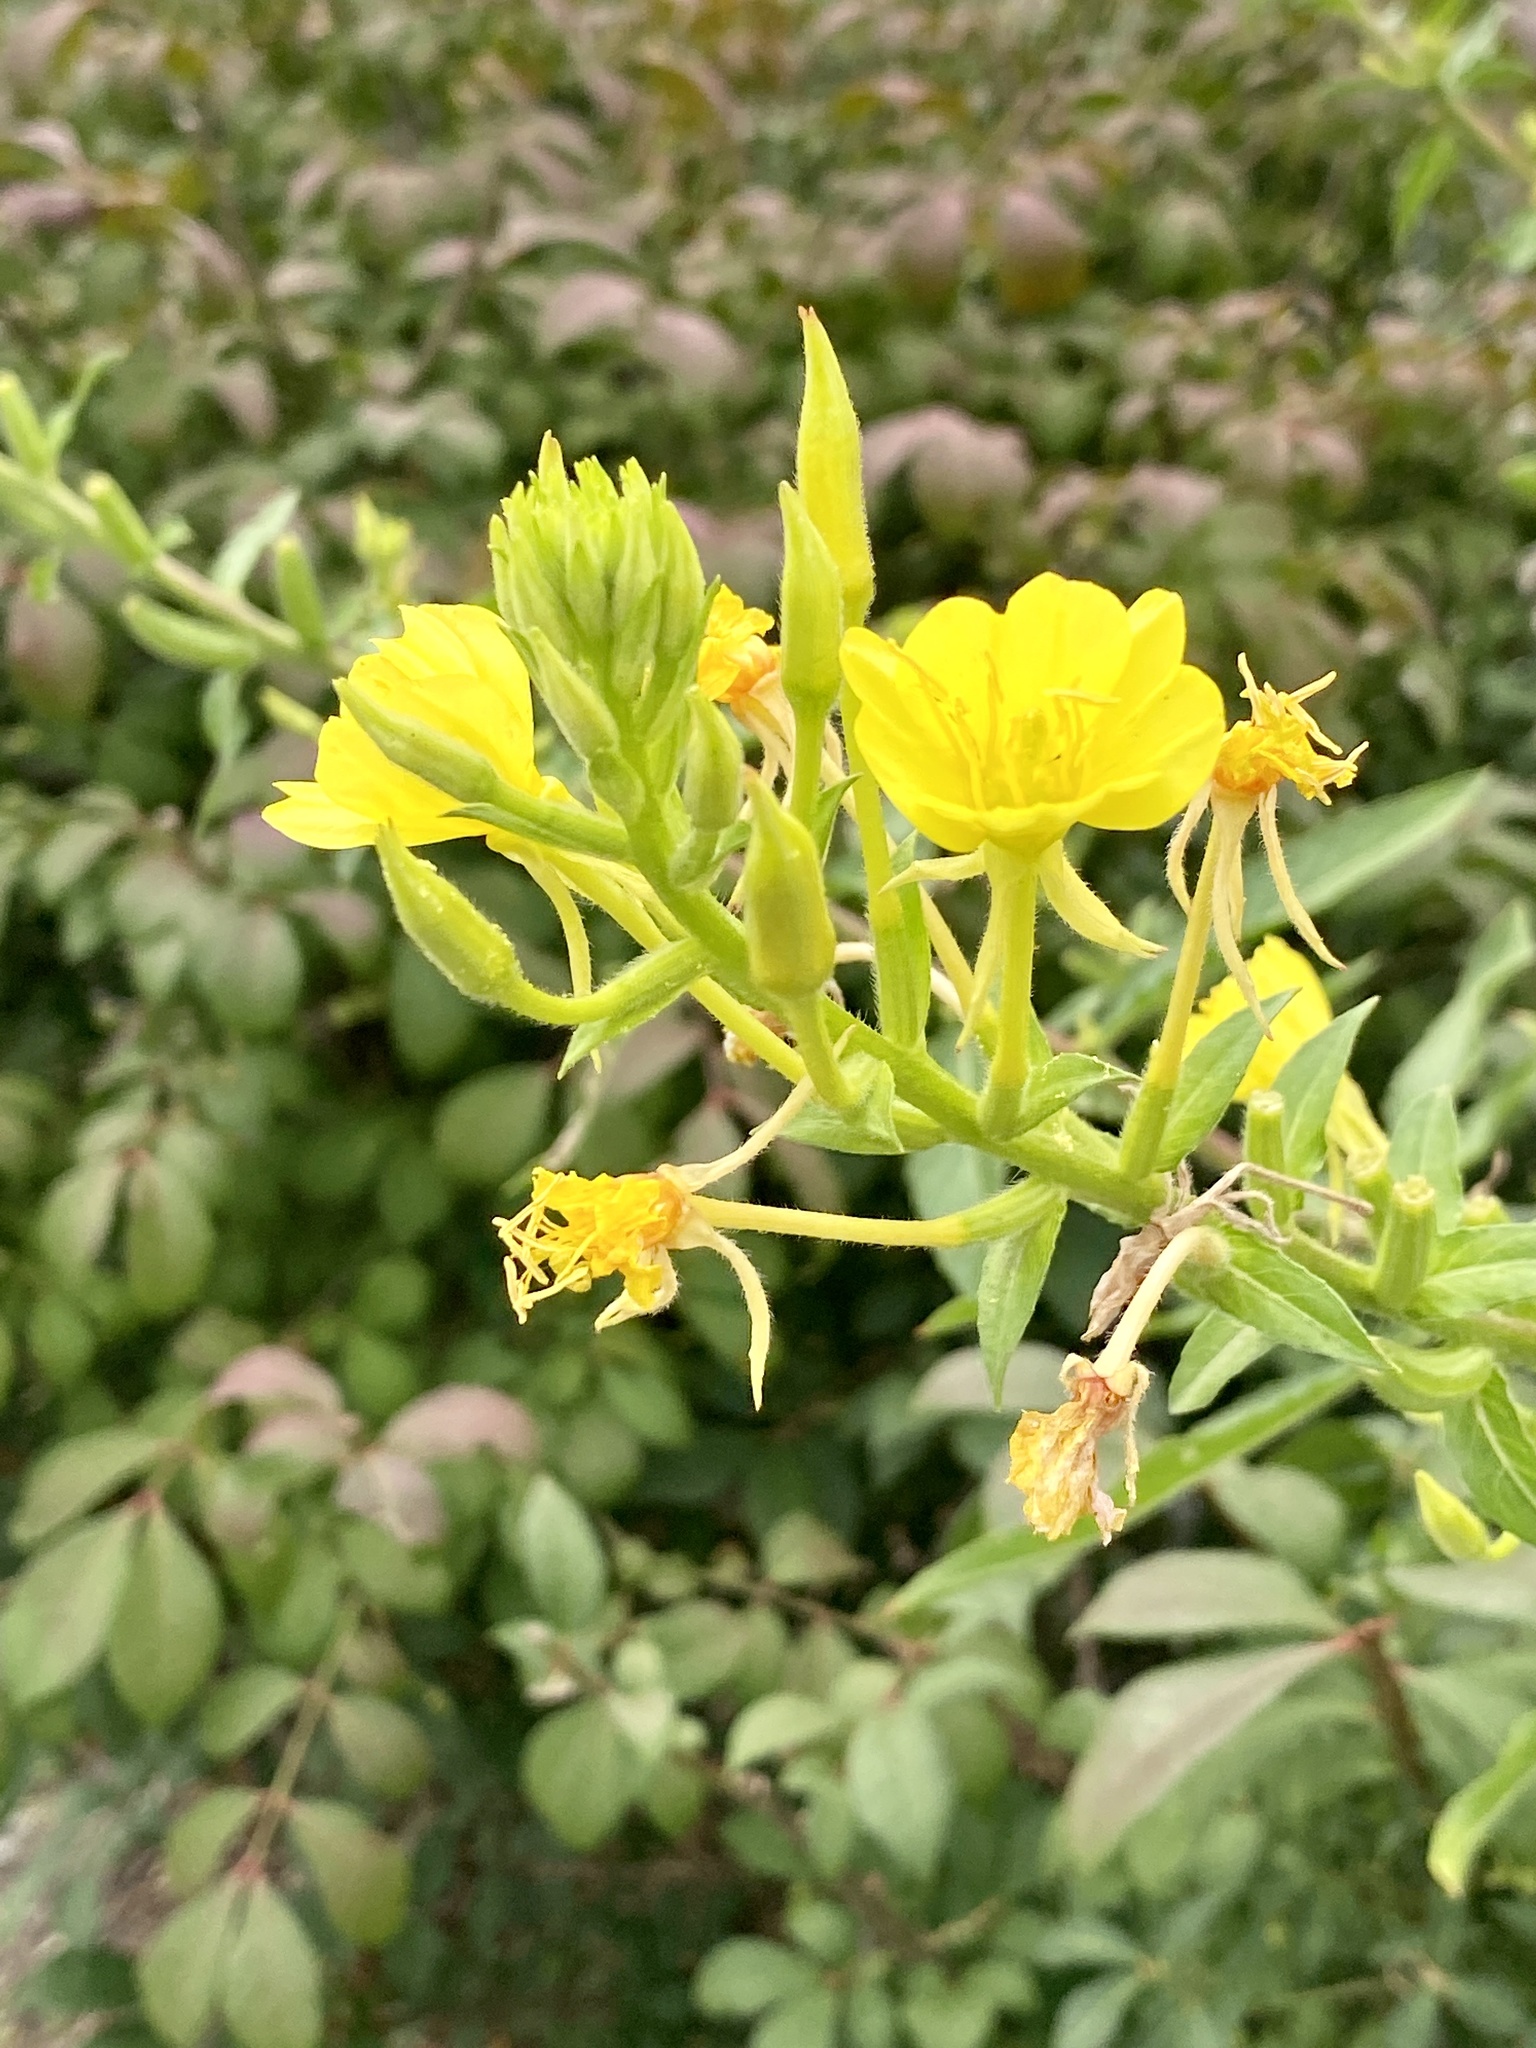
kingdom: Plantae
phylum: Tracheophyta
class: Magnoliopsida
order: Myrtales
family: Onagraceae
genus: Oenothera
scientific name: Oenothera biennis
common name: Common evening-primrose
